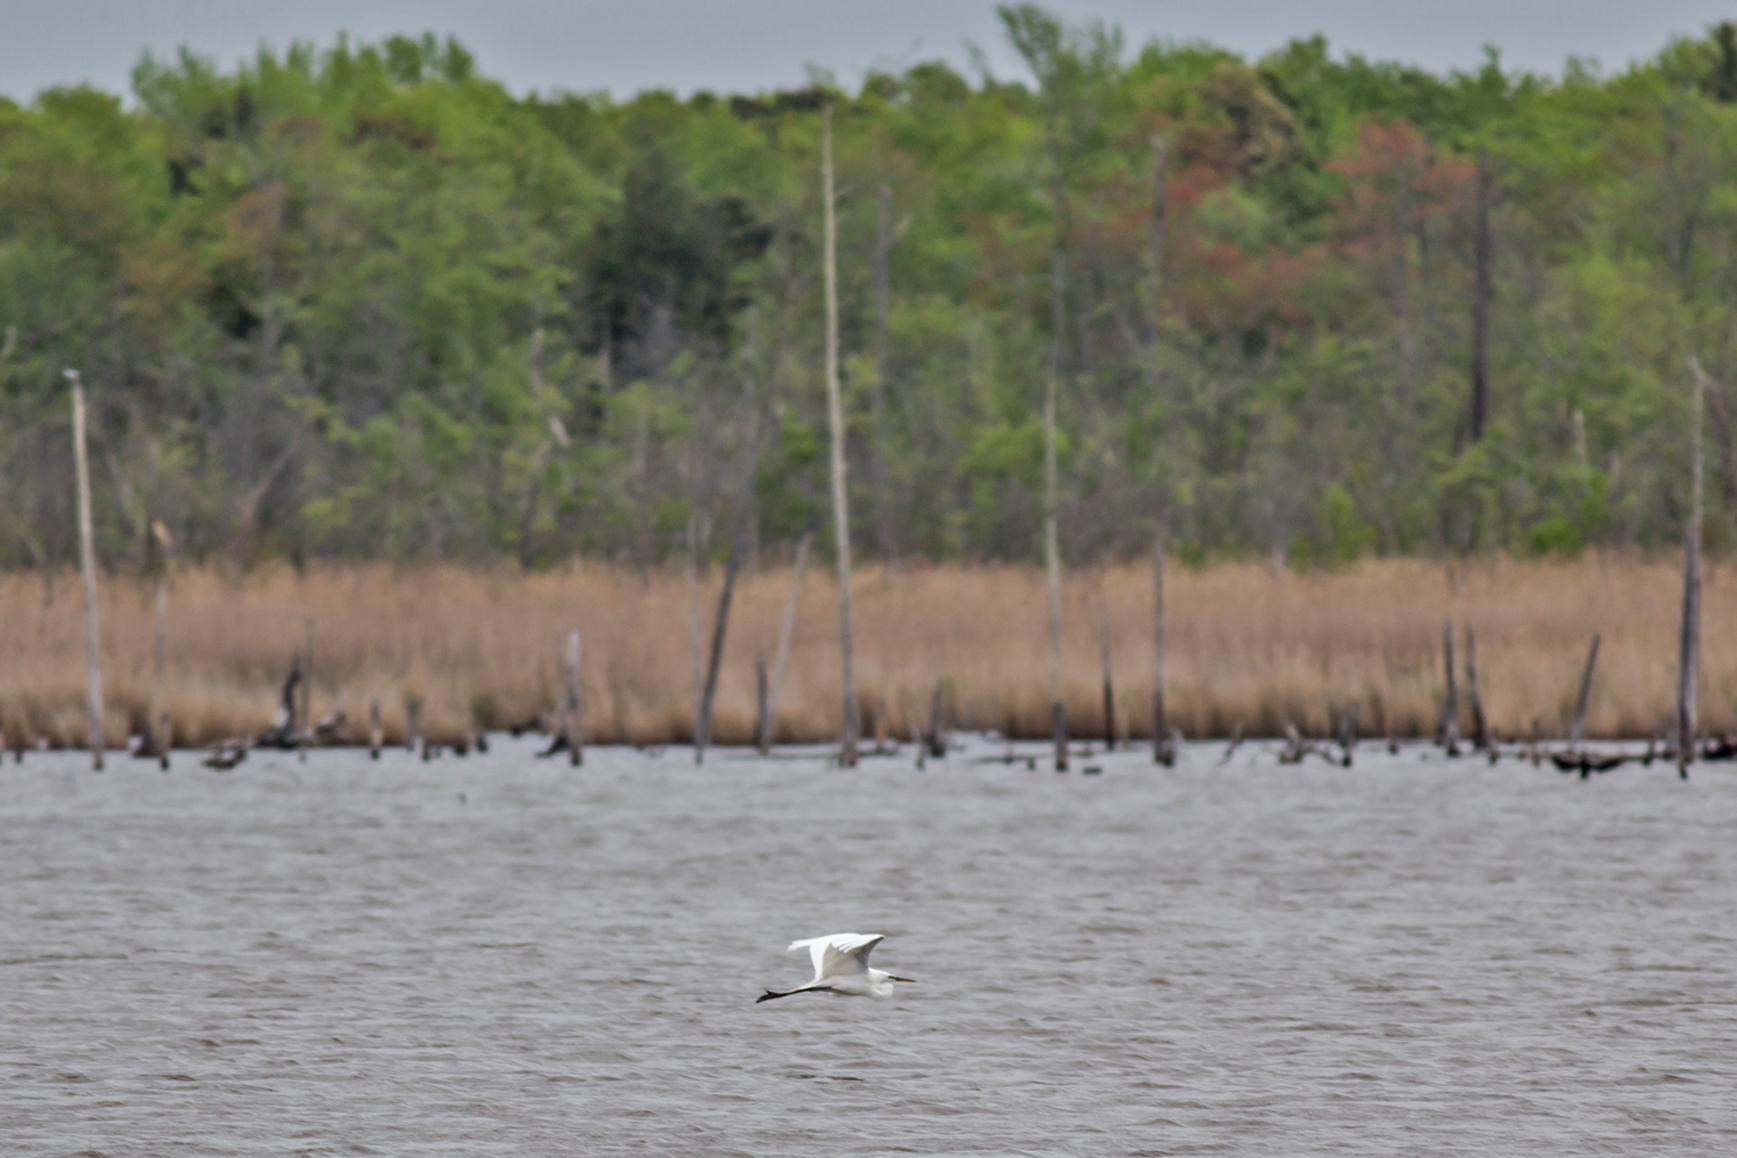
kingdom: Animalia
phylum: Chordata
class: Aves
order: Pelecaniformes
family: Ardeidae
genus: Ardea
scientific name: Ardea alba
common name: Great egret
